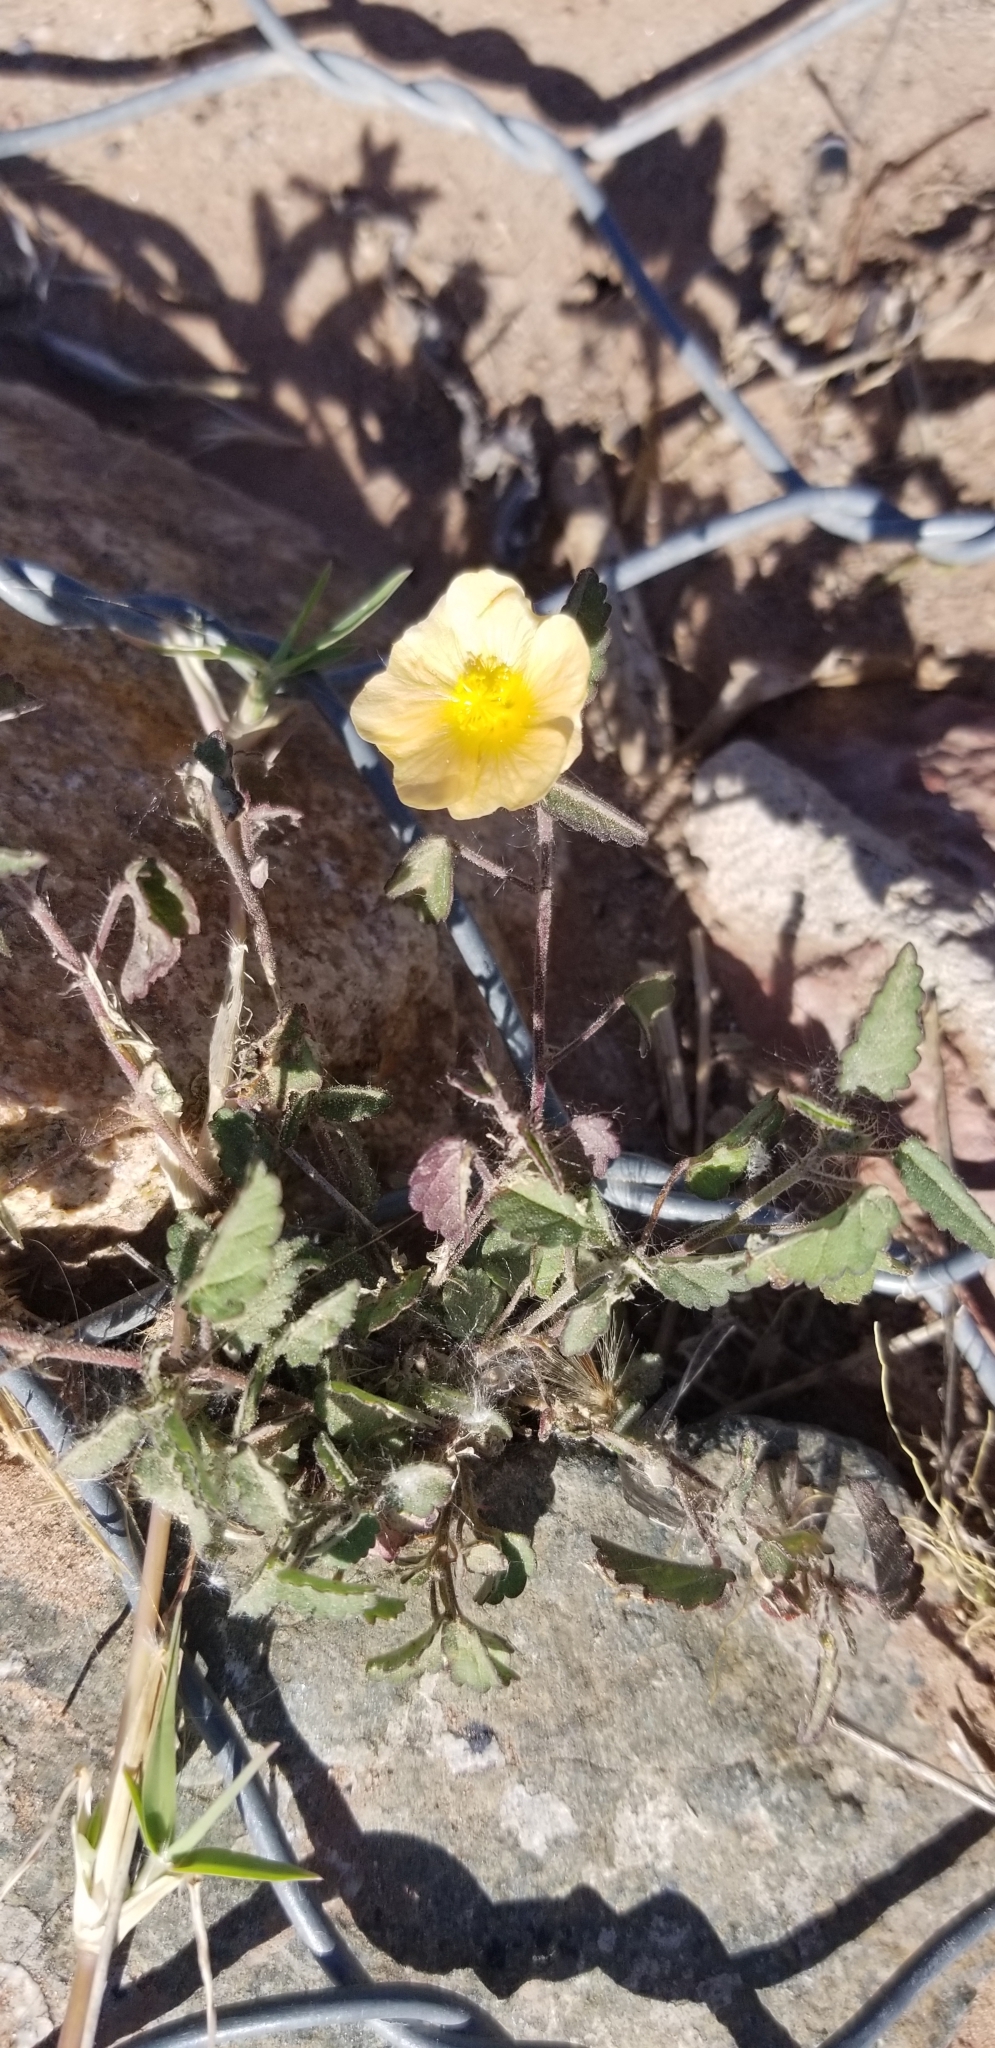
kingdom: Plantae
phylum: Tracheophyta
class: Magnoliopsida
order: Malvales
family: Malvaceae
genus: Sida
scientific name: Sida abutilifolia
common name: Spreading fanpetals
